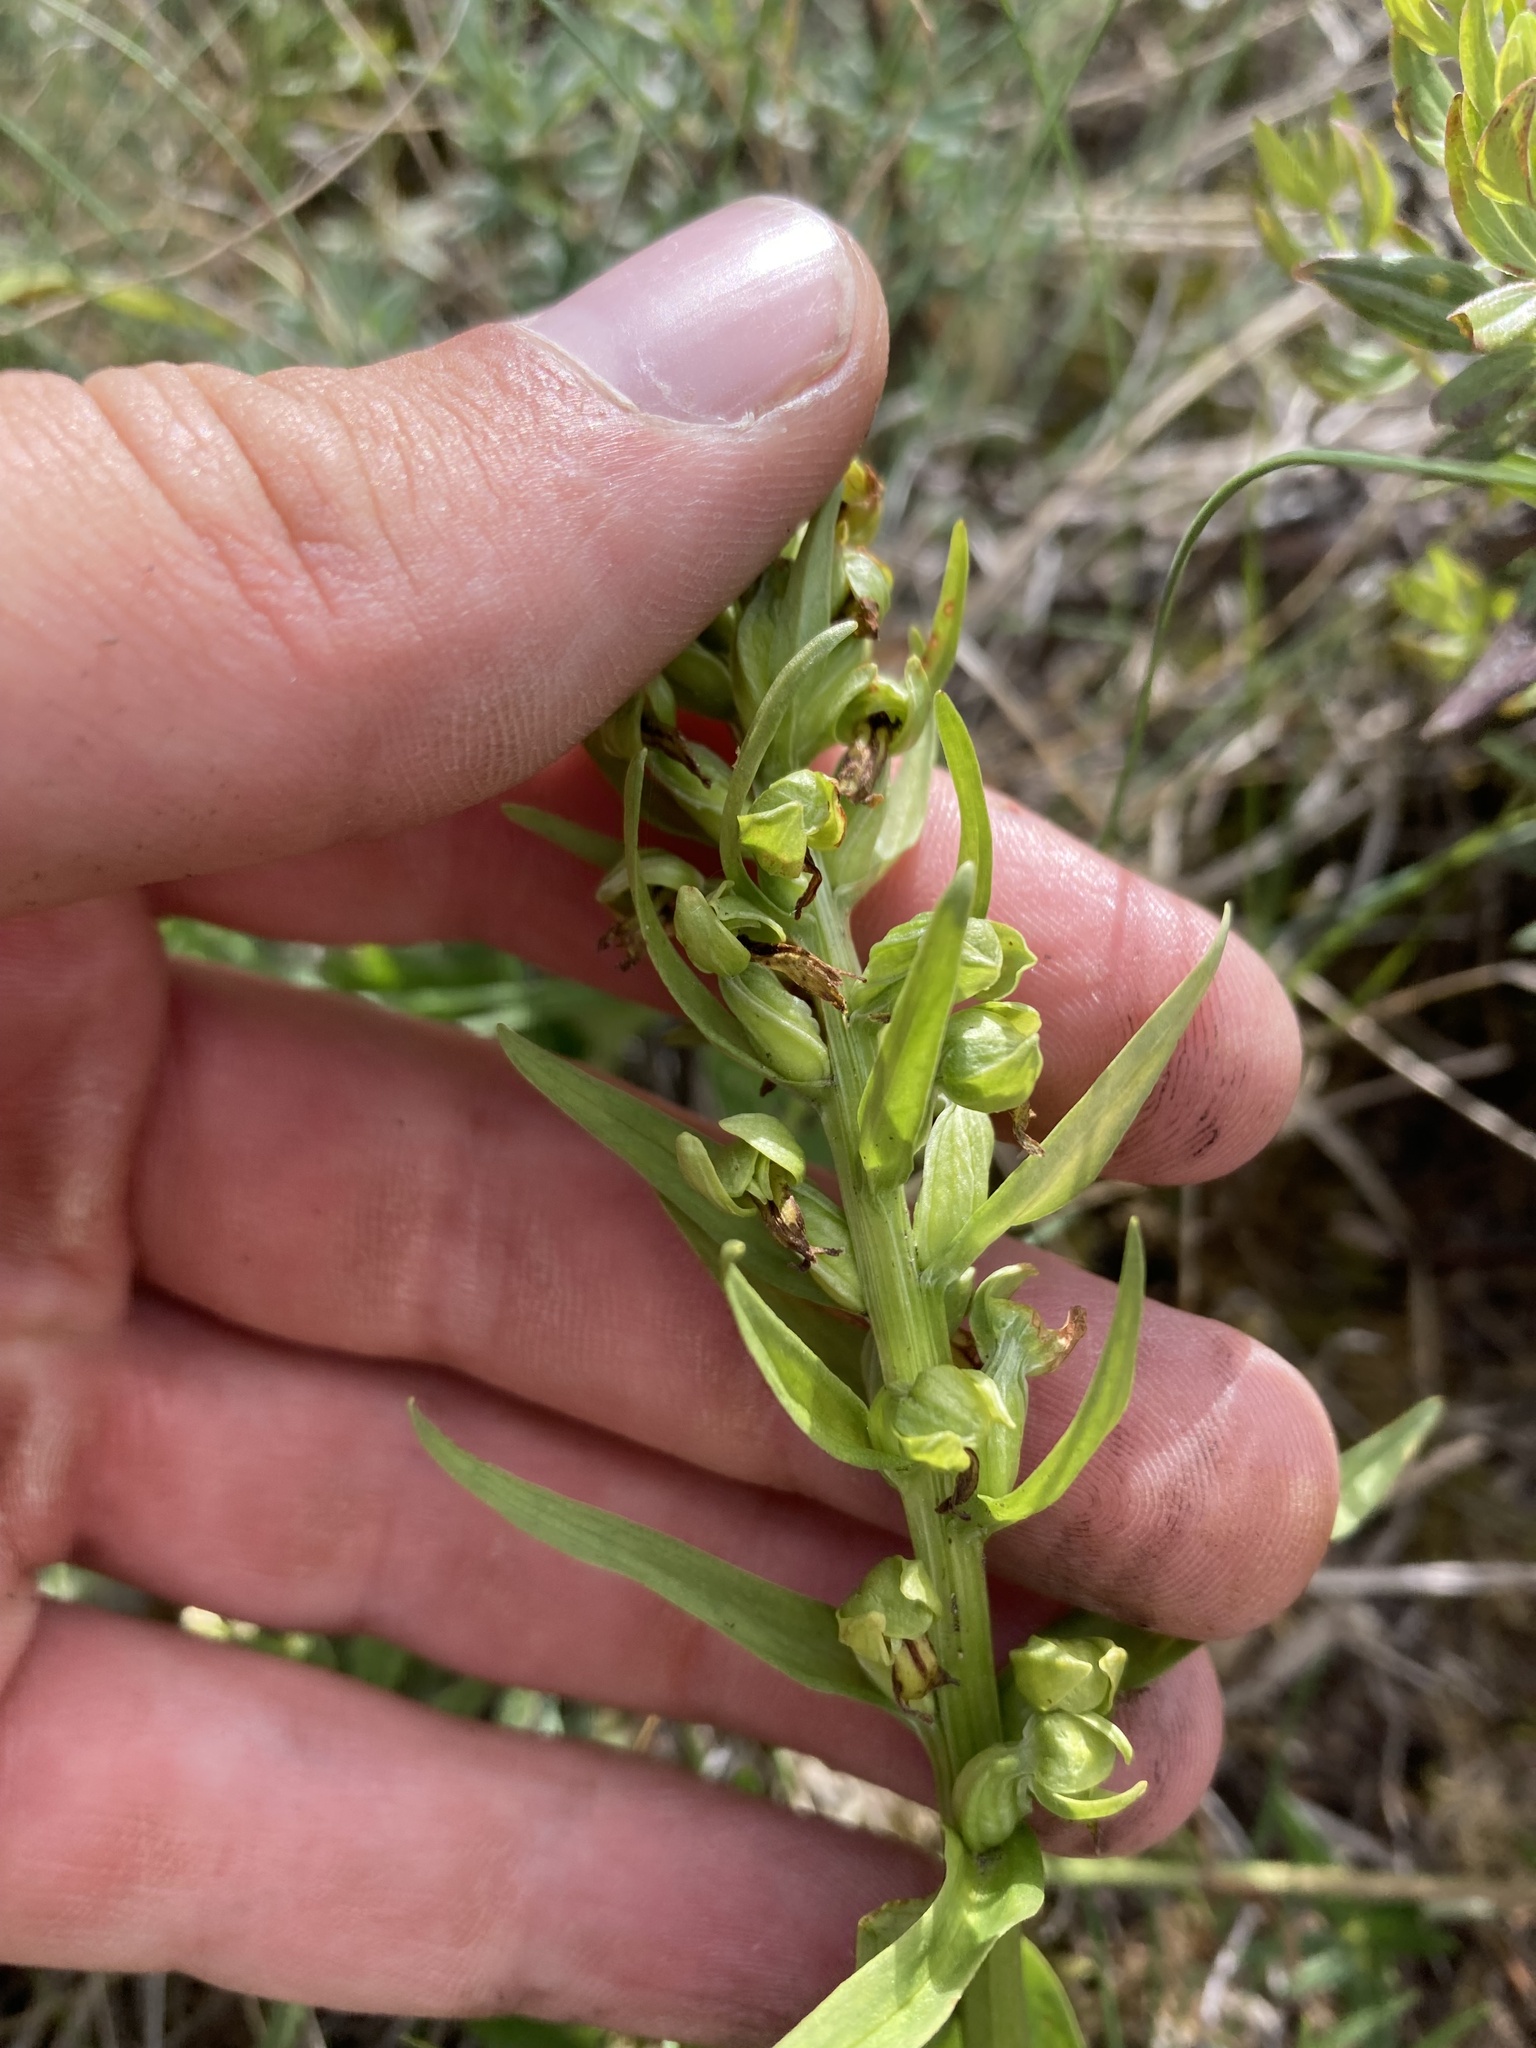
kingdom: Plantae
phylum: Tracheophyta
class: Liliopsida
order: Asparagales
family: Orchidaceae
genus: Dactylorhiza
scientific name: Dactylorhiza viridis
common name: Longbract frog orchid
